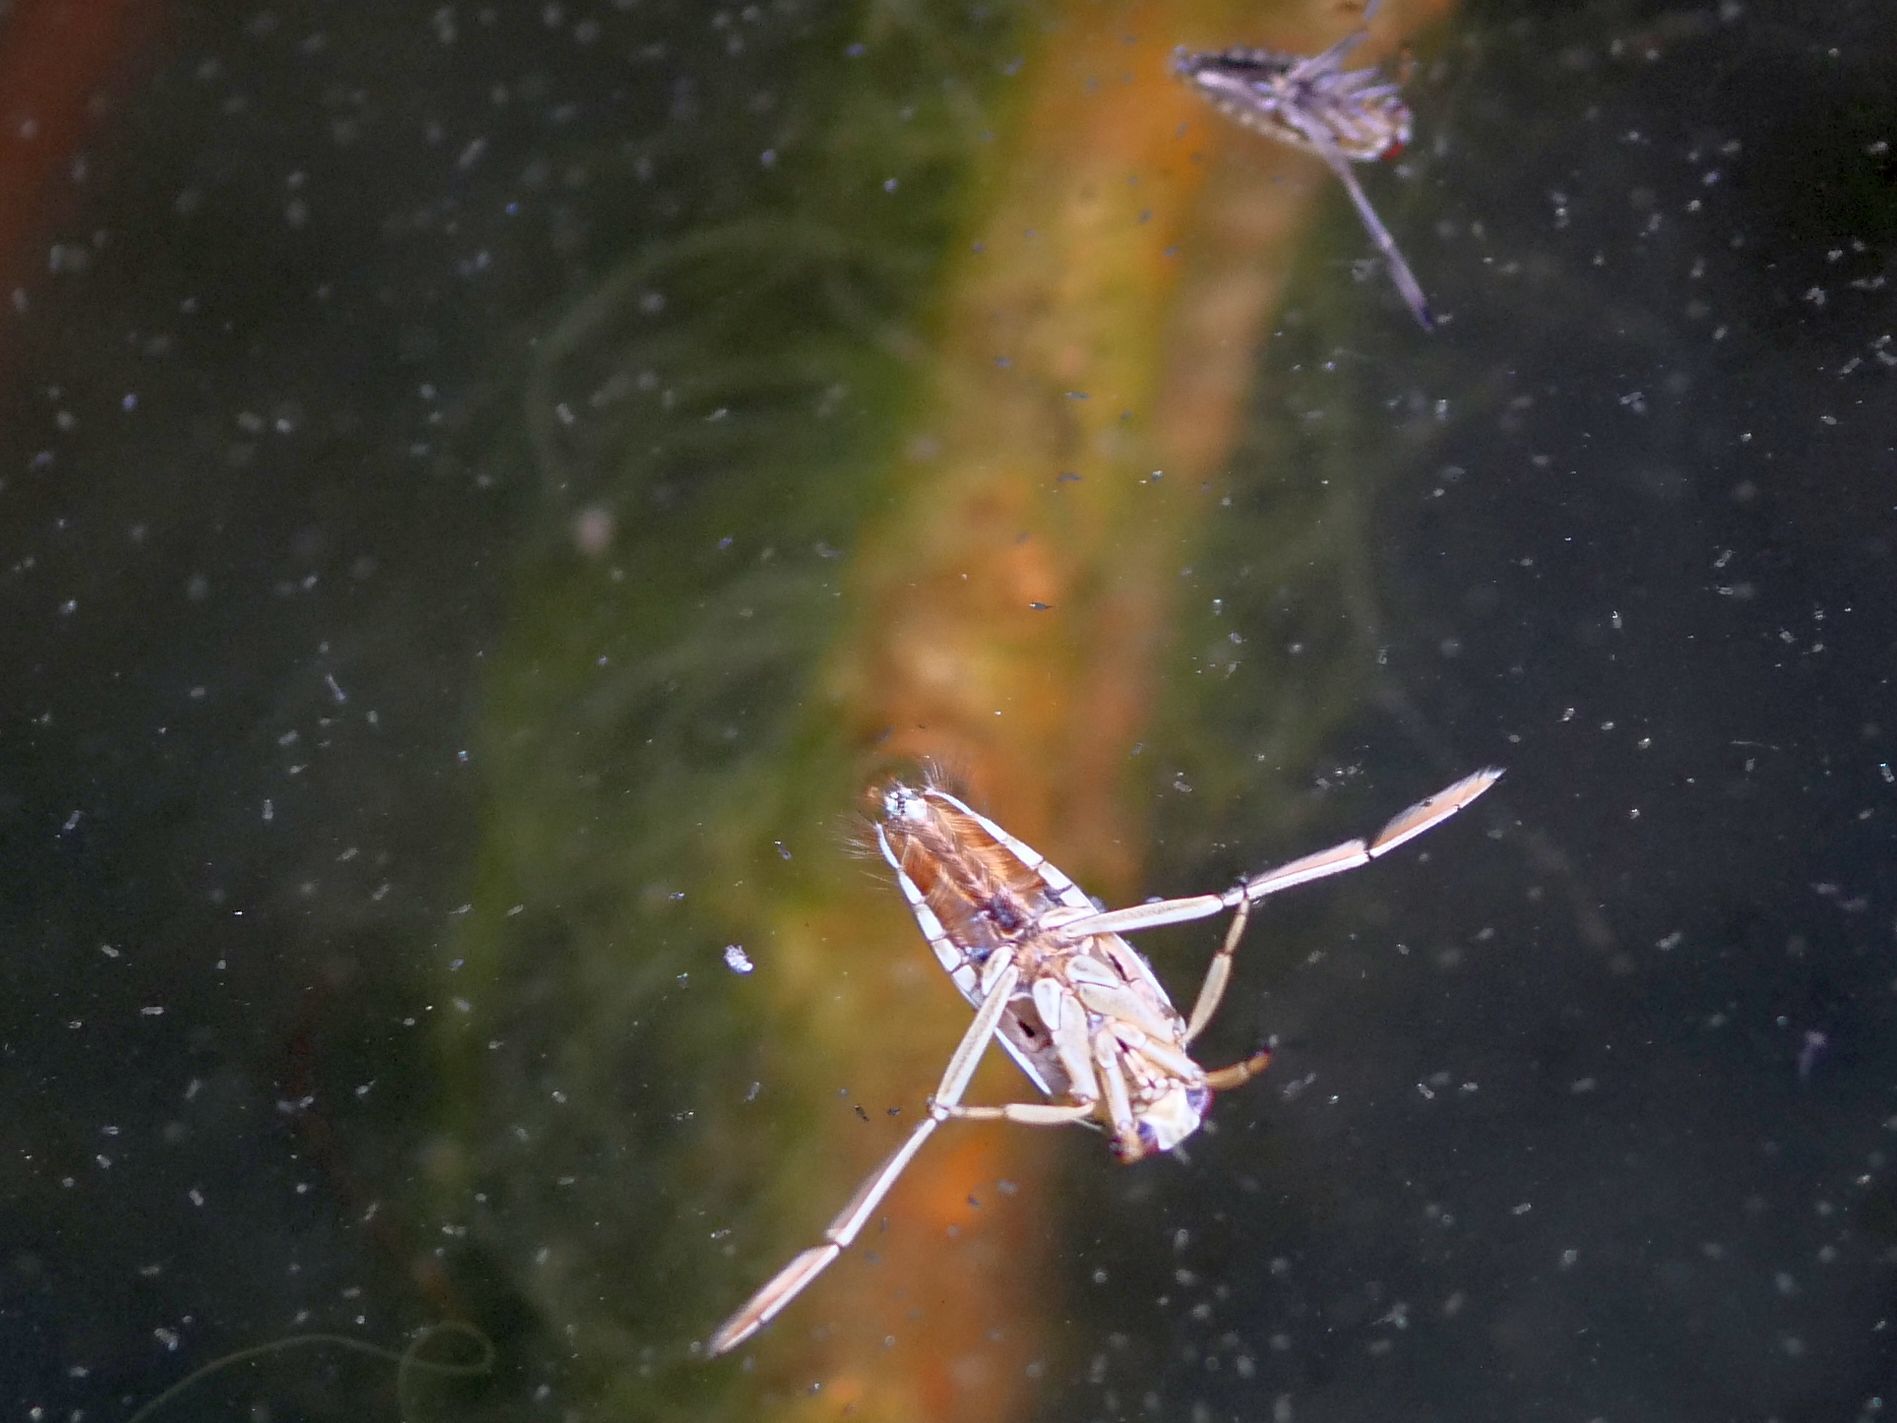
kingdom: Animalia
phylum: Arthropoda
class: Insecta
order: Hemiptera
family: Notonectidae
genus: Notonecta
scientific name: Notonecta
